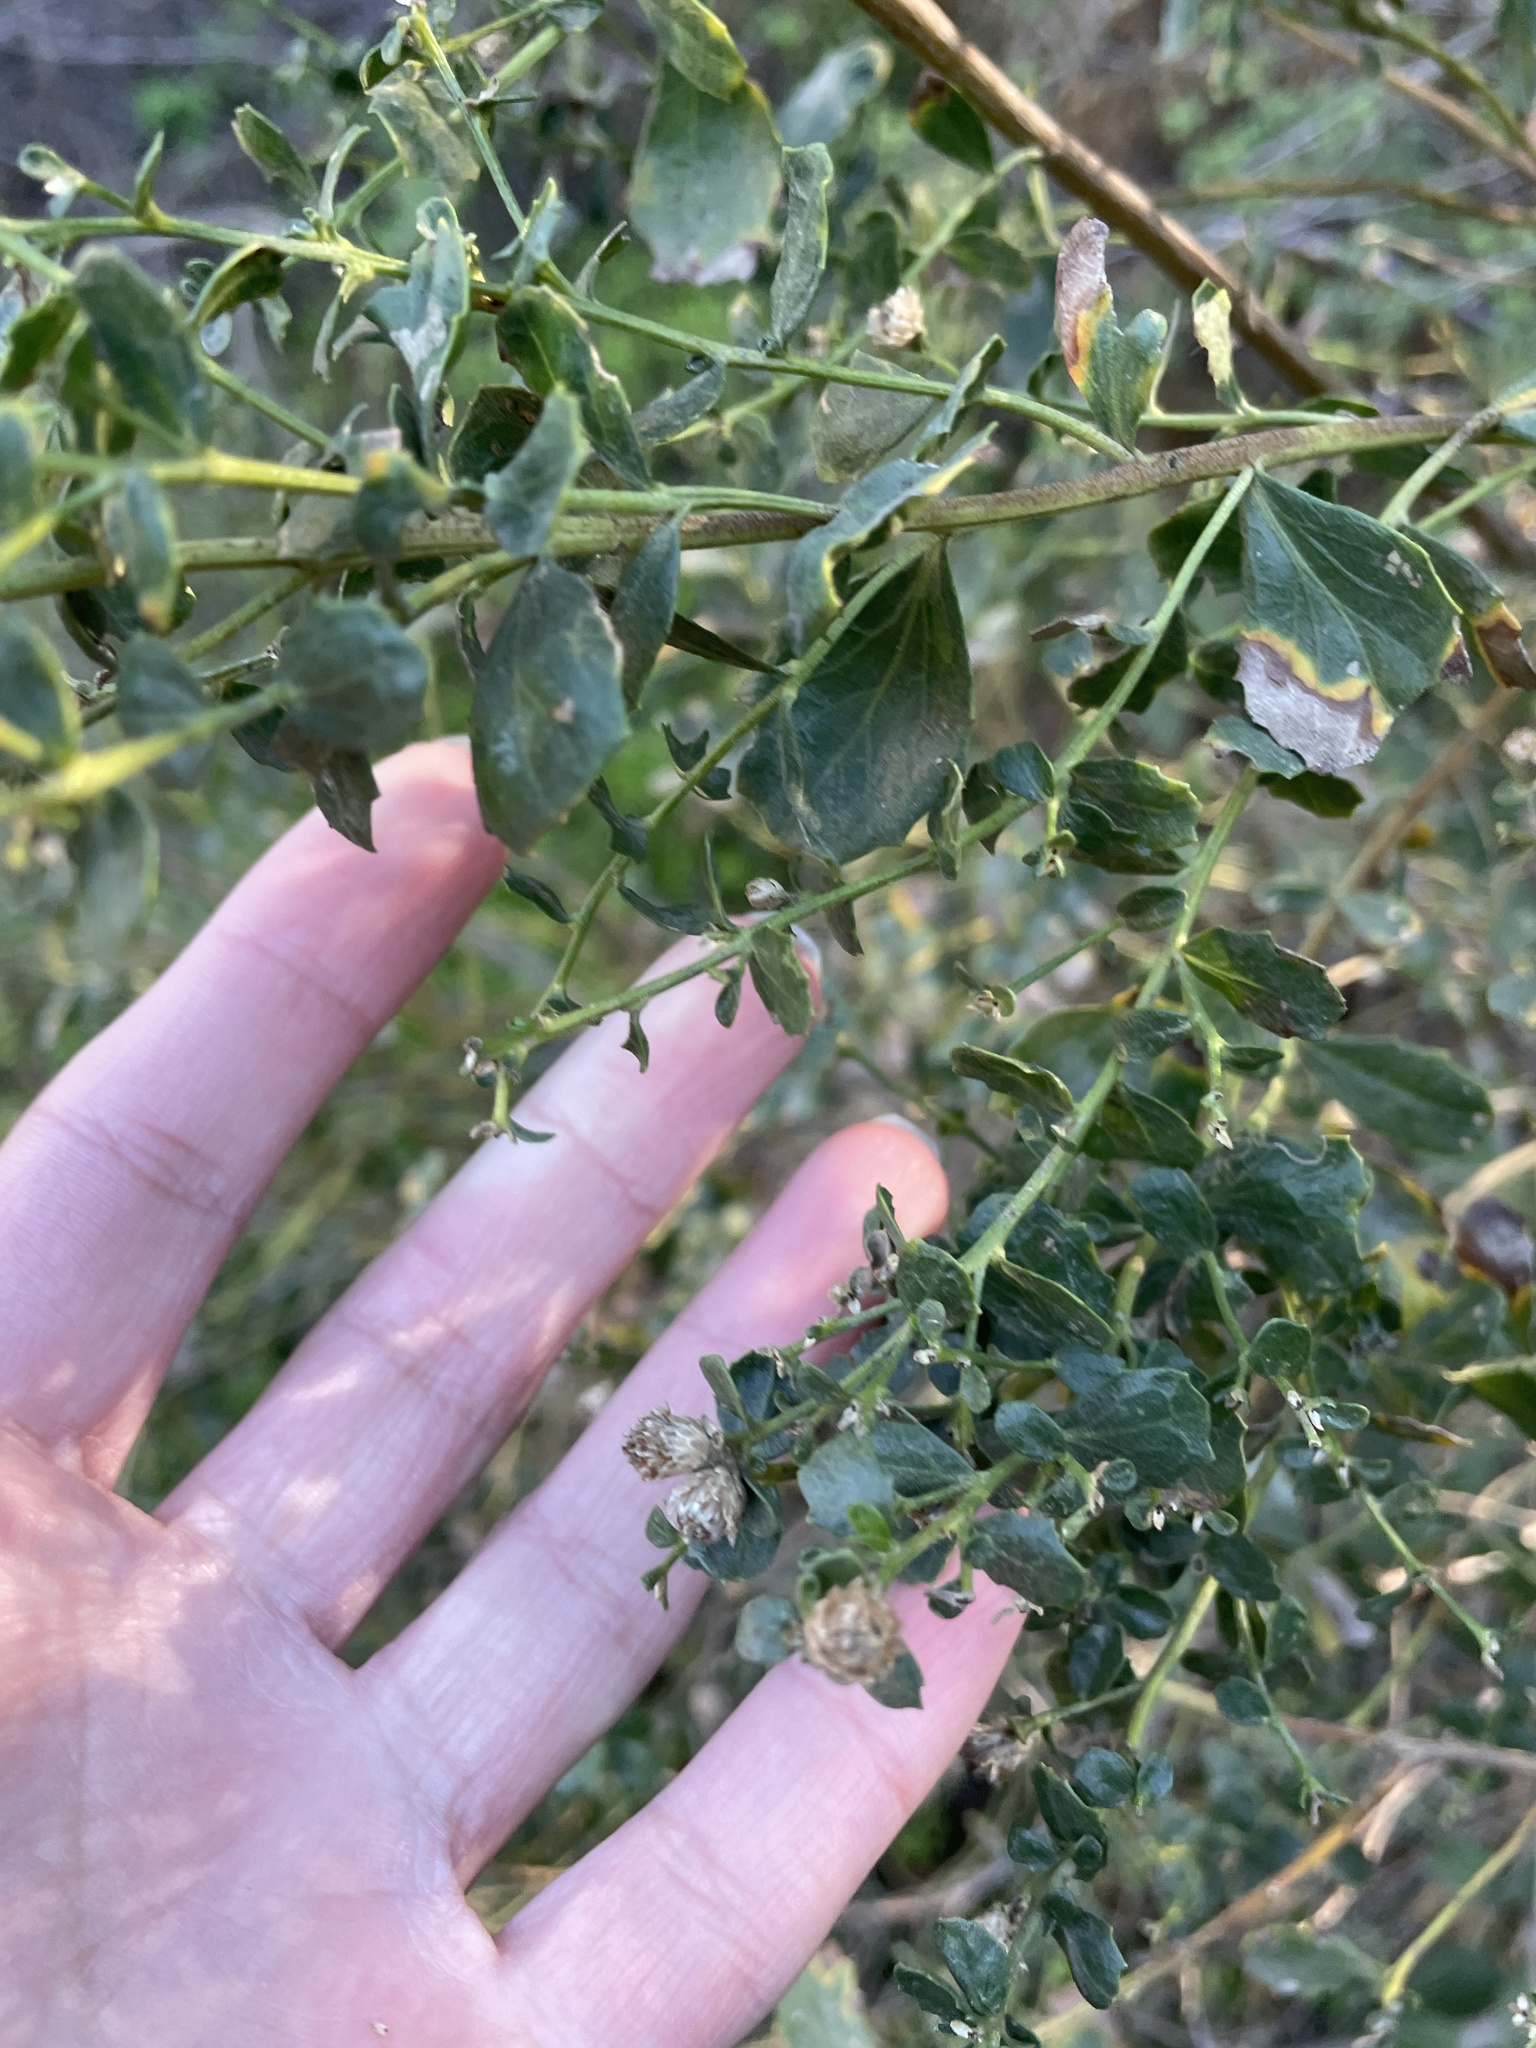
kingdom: Plantae
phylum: Tracheophyta
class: Magnoliopsida
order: Asterales
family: Asteraceae
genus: Baccharis
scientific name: Baccharis pilularis
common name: Coyotebrush
